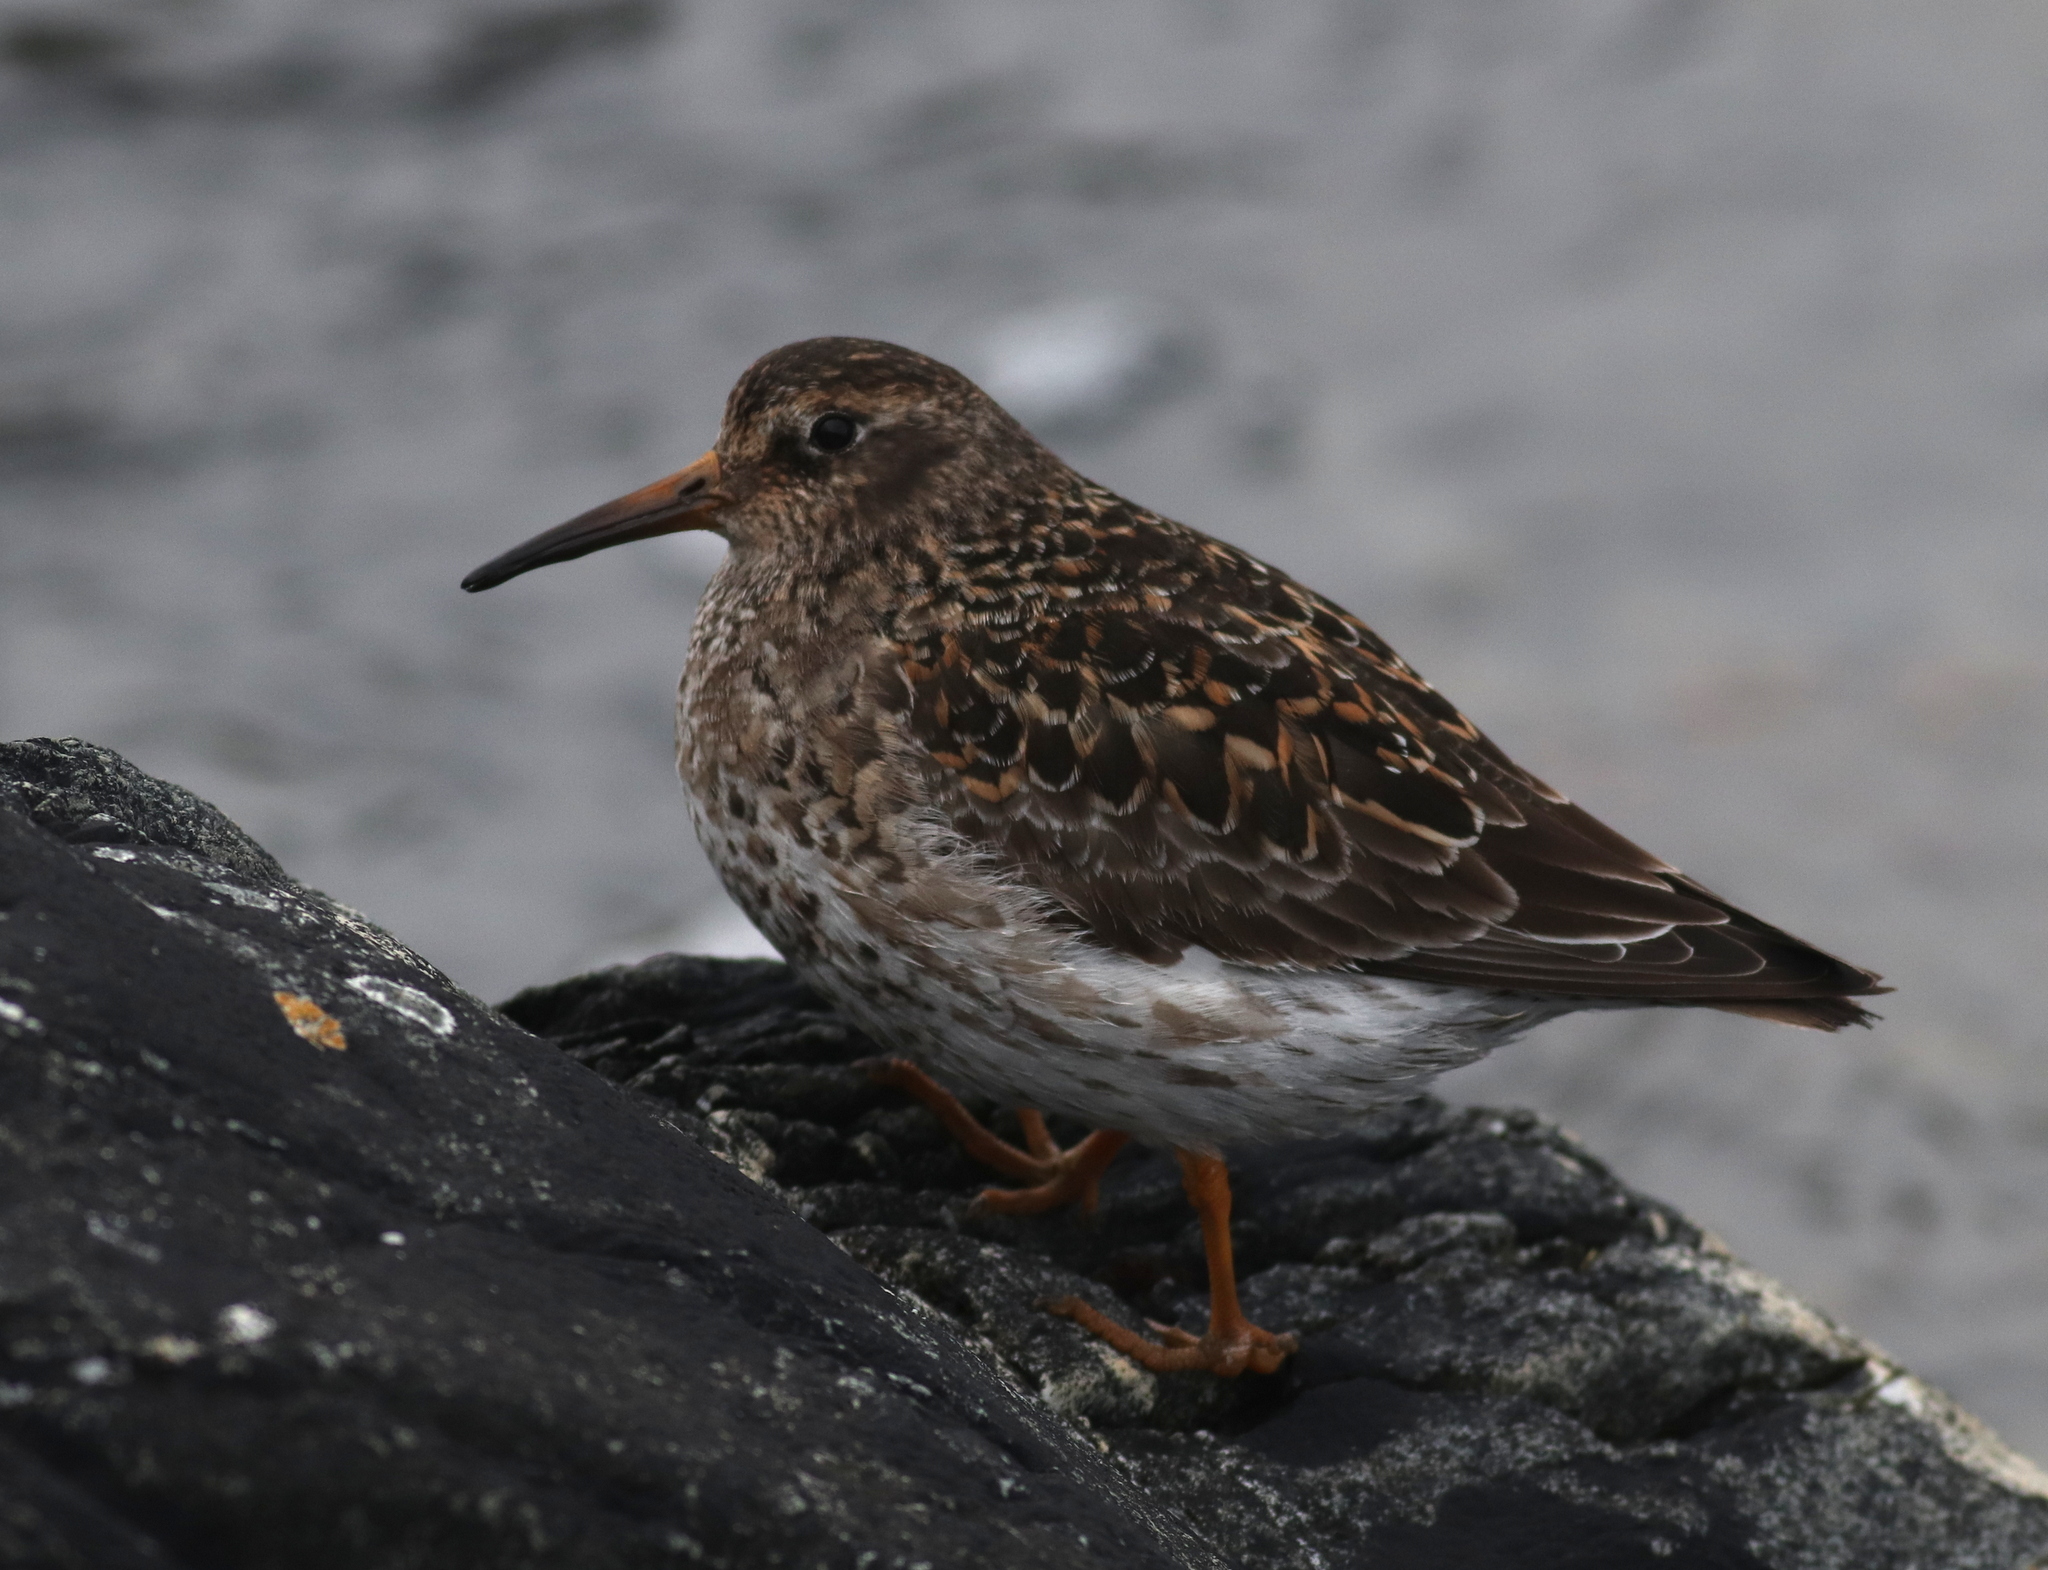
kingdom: Animalia
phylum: Chordata
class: Aves
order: Charadriiformes
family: Scolopacidae
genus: Calidris
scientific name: Calidris maritima
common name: Purple sandpiper
